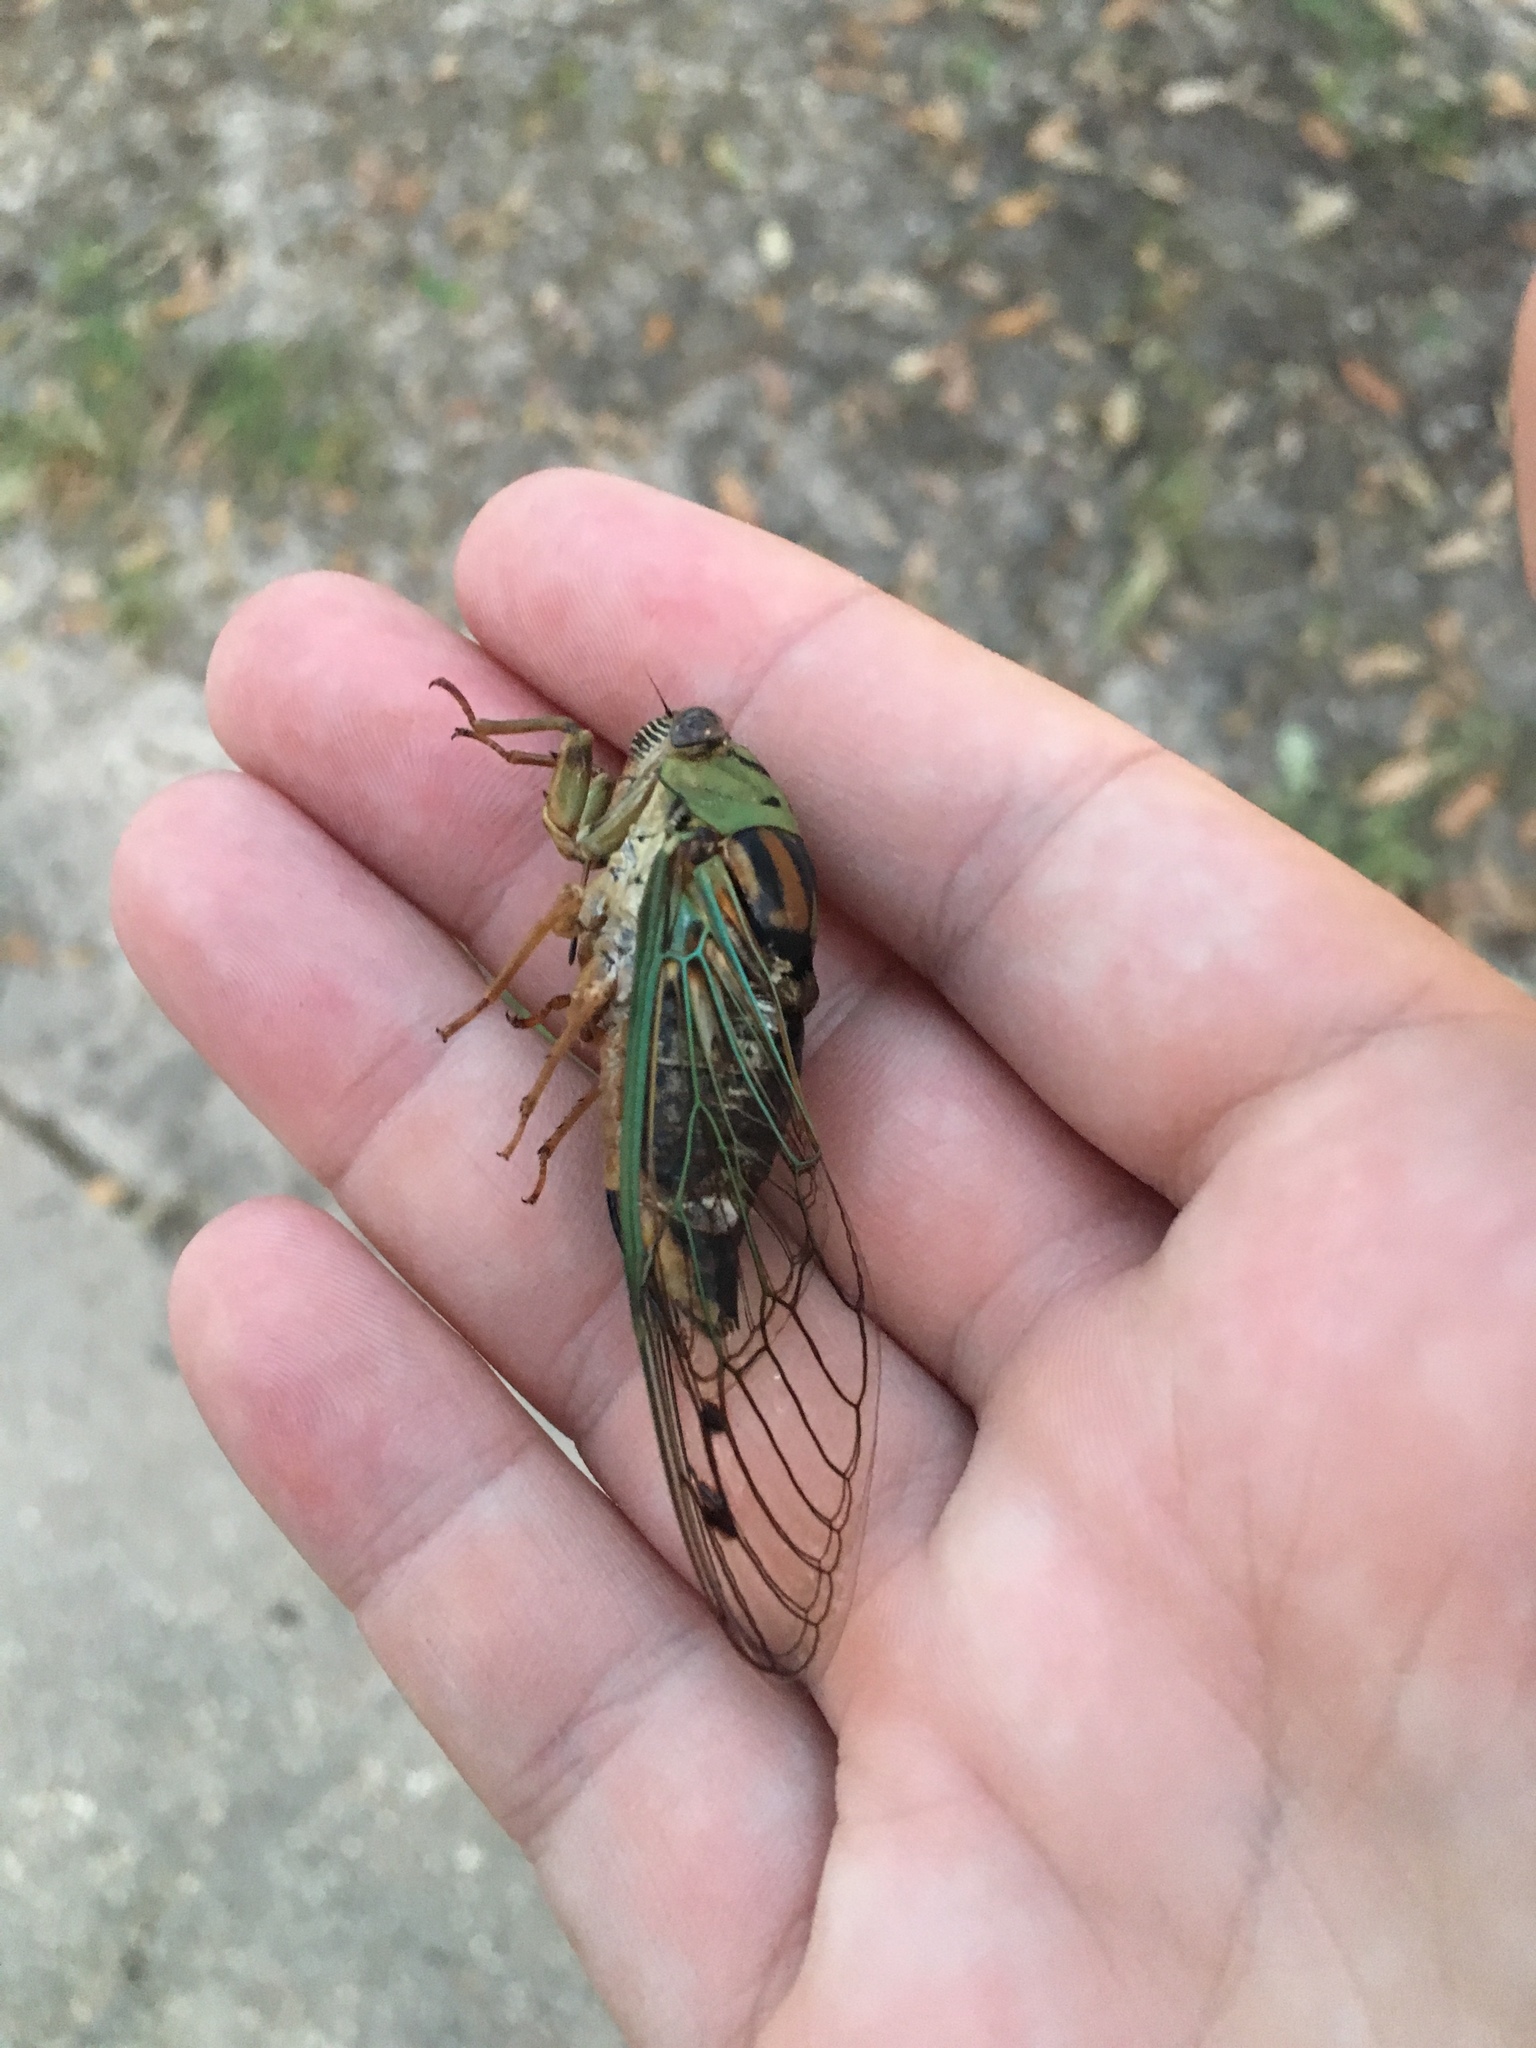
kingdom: Animalia
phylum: Arthropoda
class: Insecta
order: Hemiptera
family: Cicadidae
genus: Megatibicen
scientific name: Megatibicen resh
